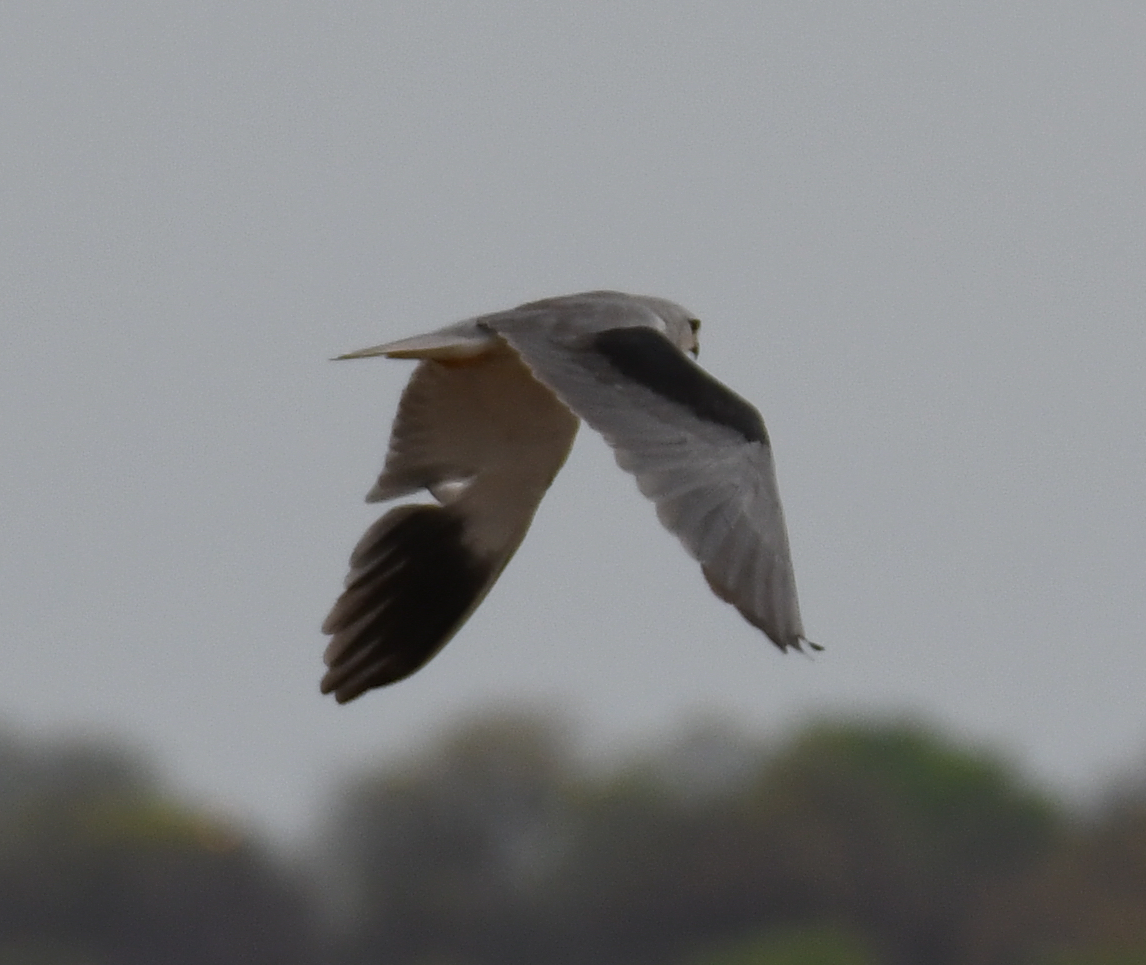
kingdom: Animalia
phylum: Chordata
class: Aves
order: Accipitriformes
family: Accipitridae
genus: Elanus
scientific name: Elanus caeruleus
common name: Black-winged kite
